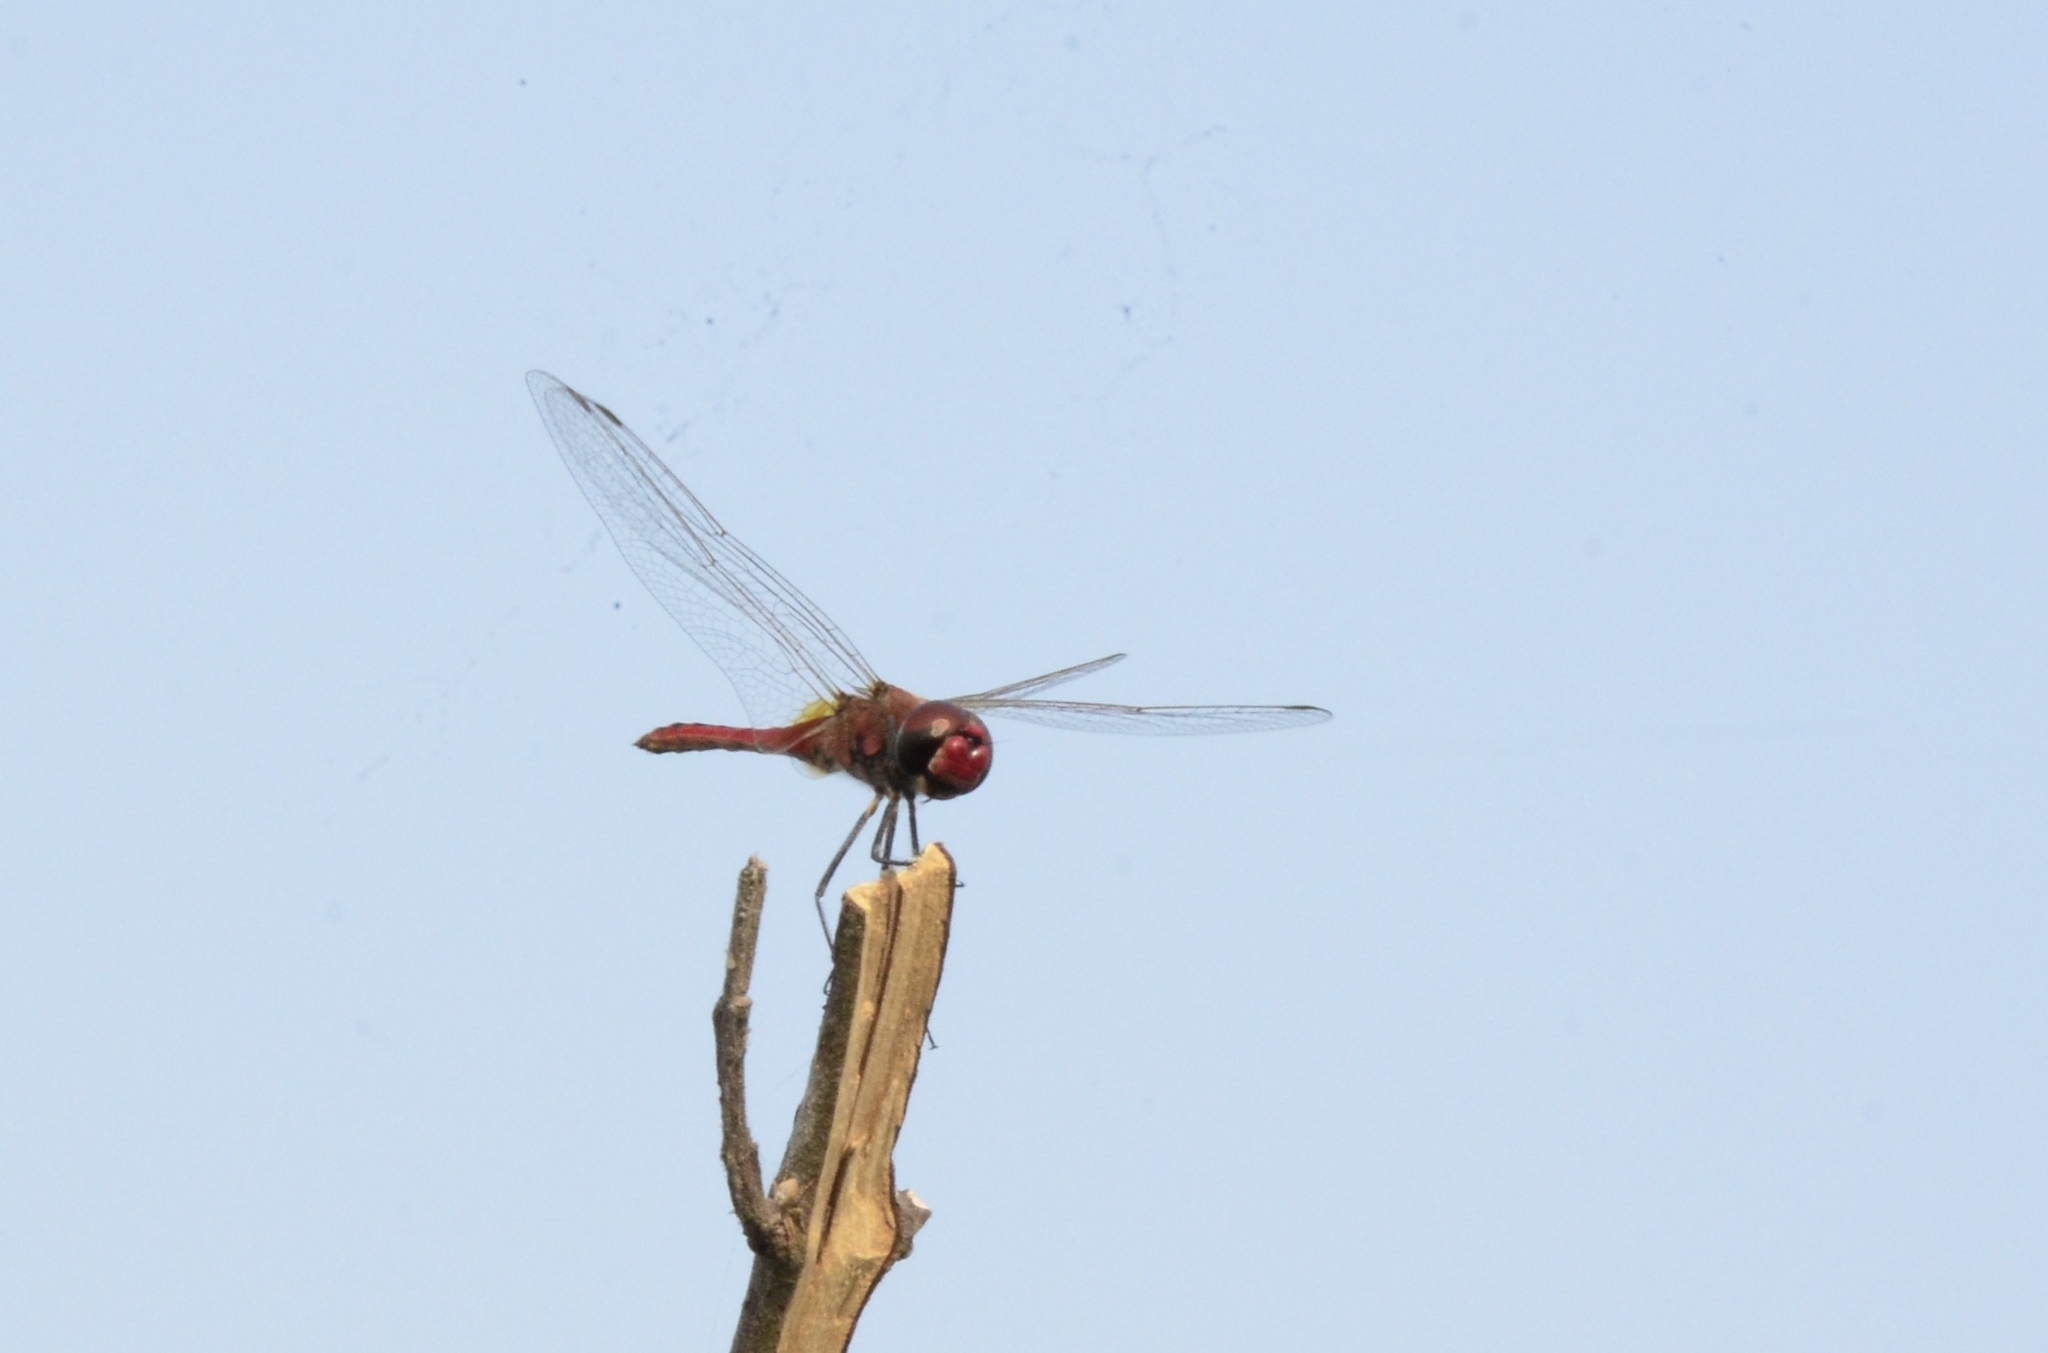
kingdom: Animalia
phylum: Arthropoda
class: Insecta
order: Odonata
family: Libellulidae
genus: Macrodiplax
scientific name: Macrodiplax cora
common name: Coastal glider
